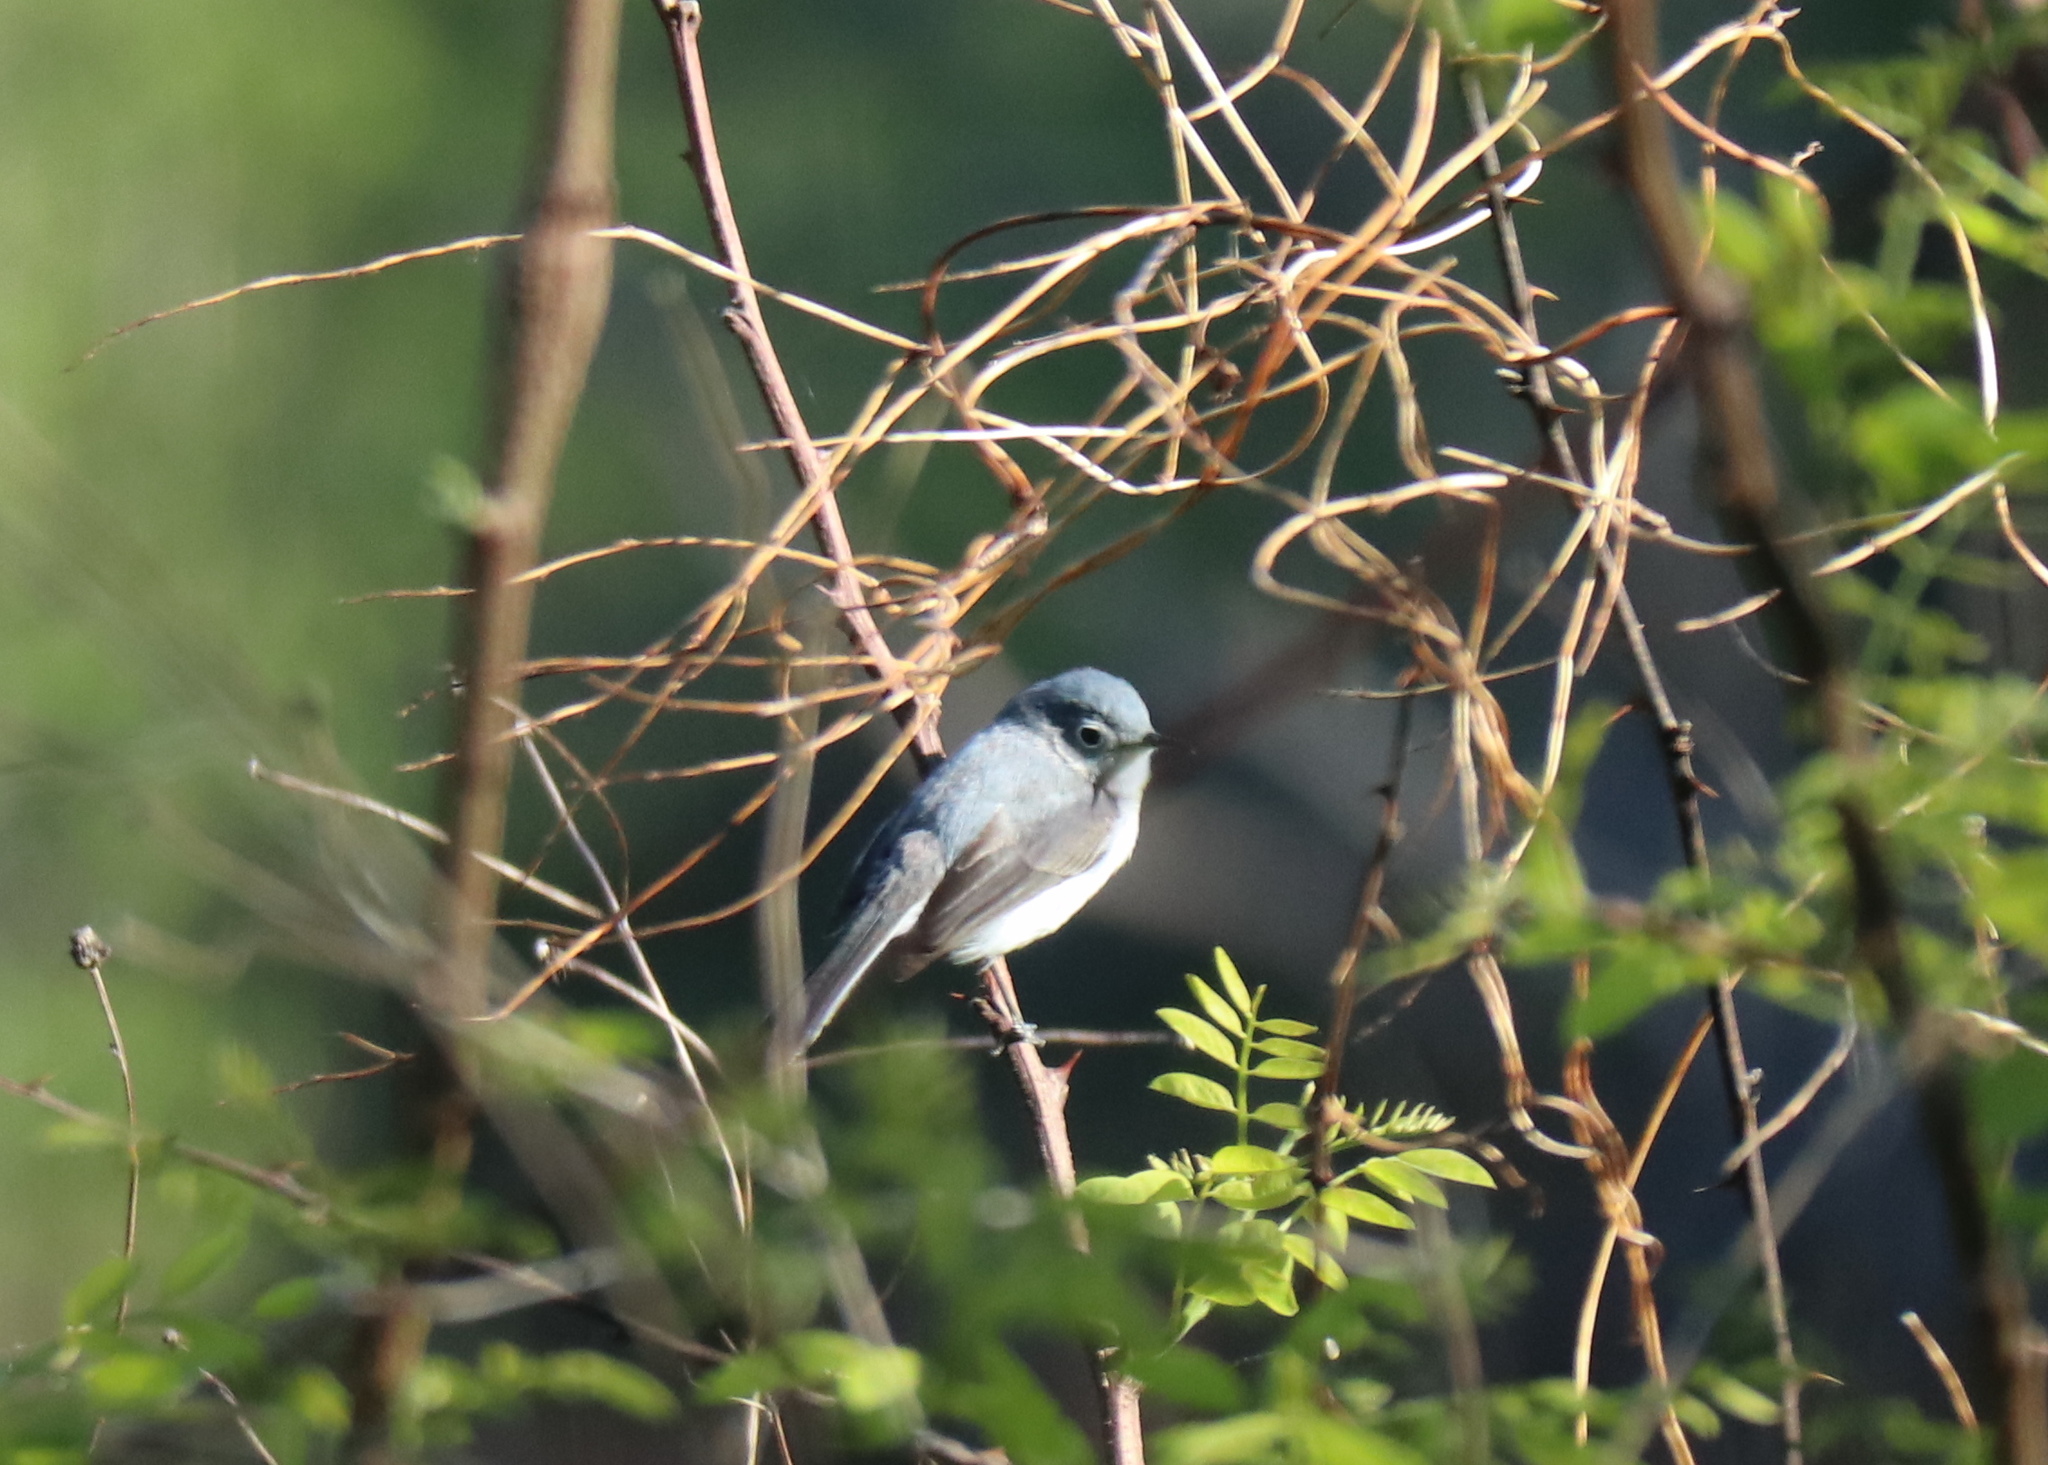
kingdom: Animalia
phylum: Chordata
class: Aves
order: Passeriformes
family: Polioptilidae
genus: Polioptila
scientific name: Polioptila caerulea
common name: Blue-gray gnatcatcher
